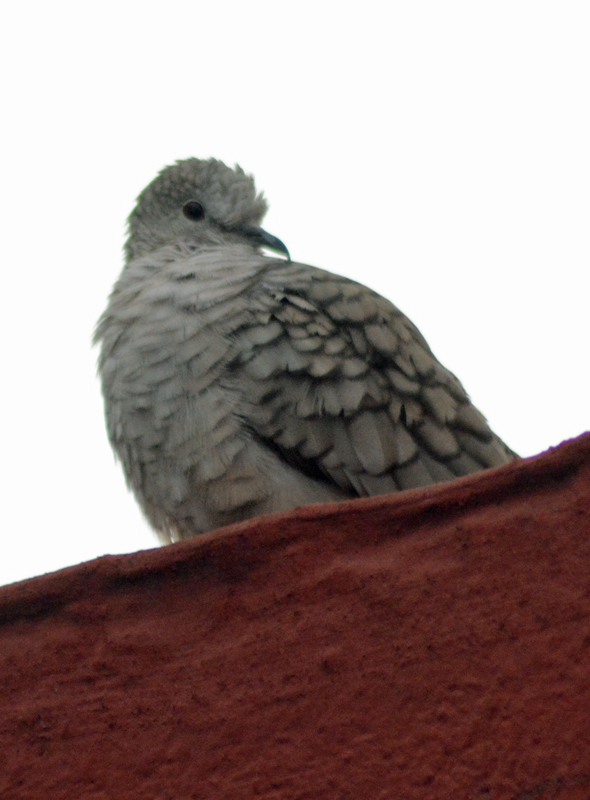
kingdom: Animalia
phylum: Chordata
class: Aves
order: Columbiformes
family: Columbidae
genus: Columbina
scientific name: Columbina inca
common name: Inca dove
